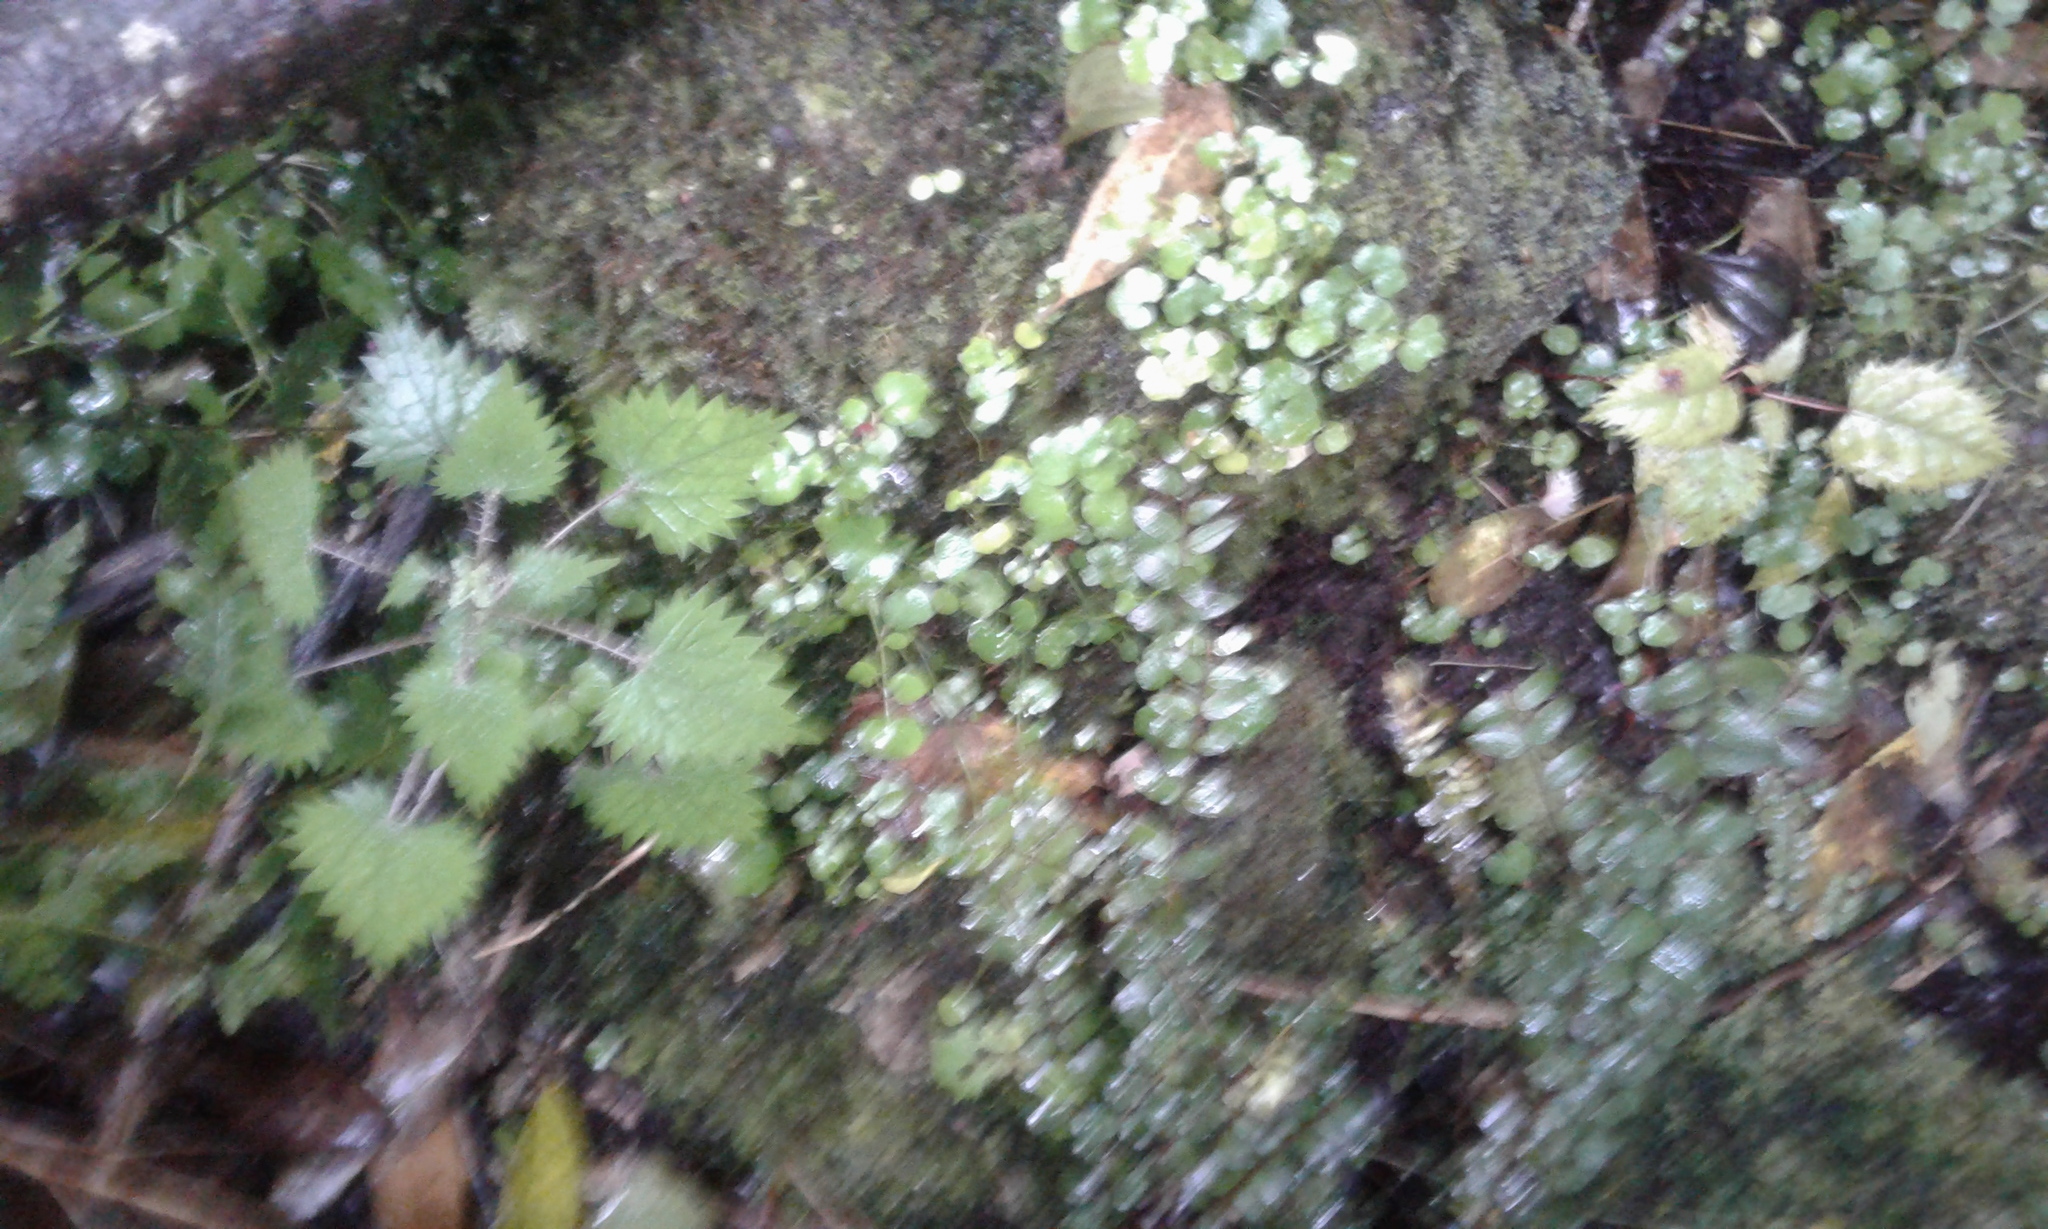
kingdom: Plantae
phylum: Tracheophyta
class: Magnoliopsida
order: Rosales
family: Urticaceae
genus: Urtica
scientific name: Urtica sykesii
